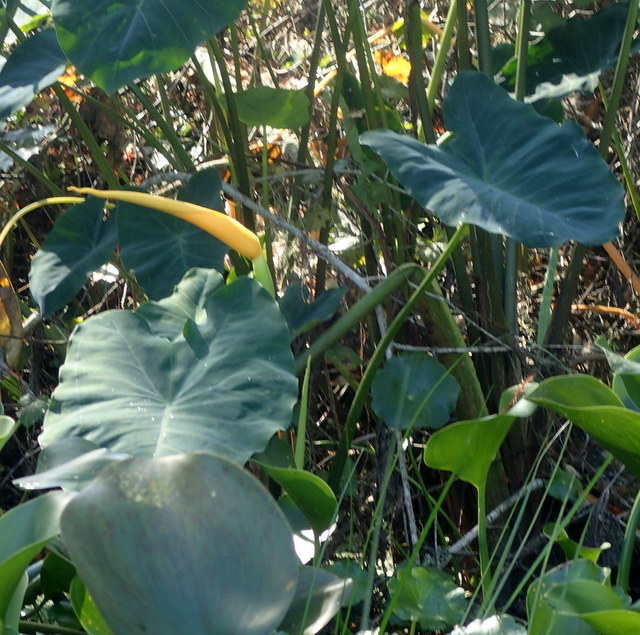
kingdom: Plantae
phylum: Tracheophyta
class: Liliopsida
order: Alismatales
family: Araceae
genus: Colocasia
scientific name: Colocasia esculenta
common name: Taro
